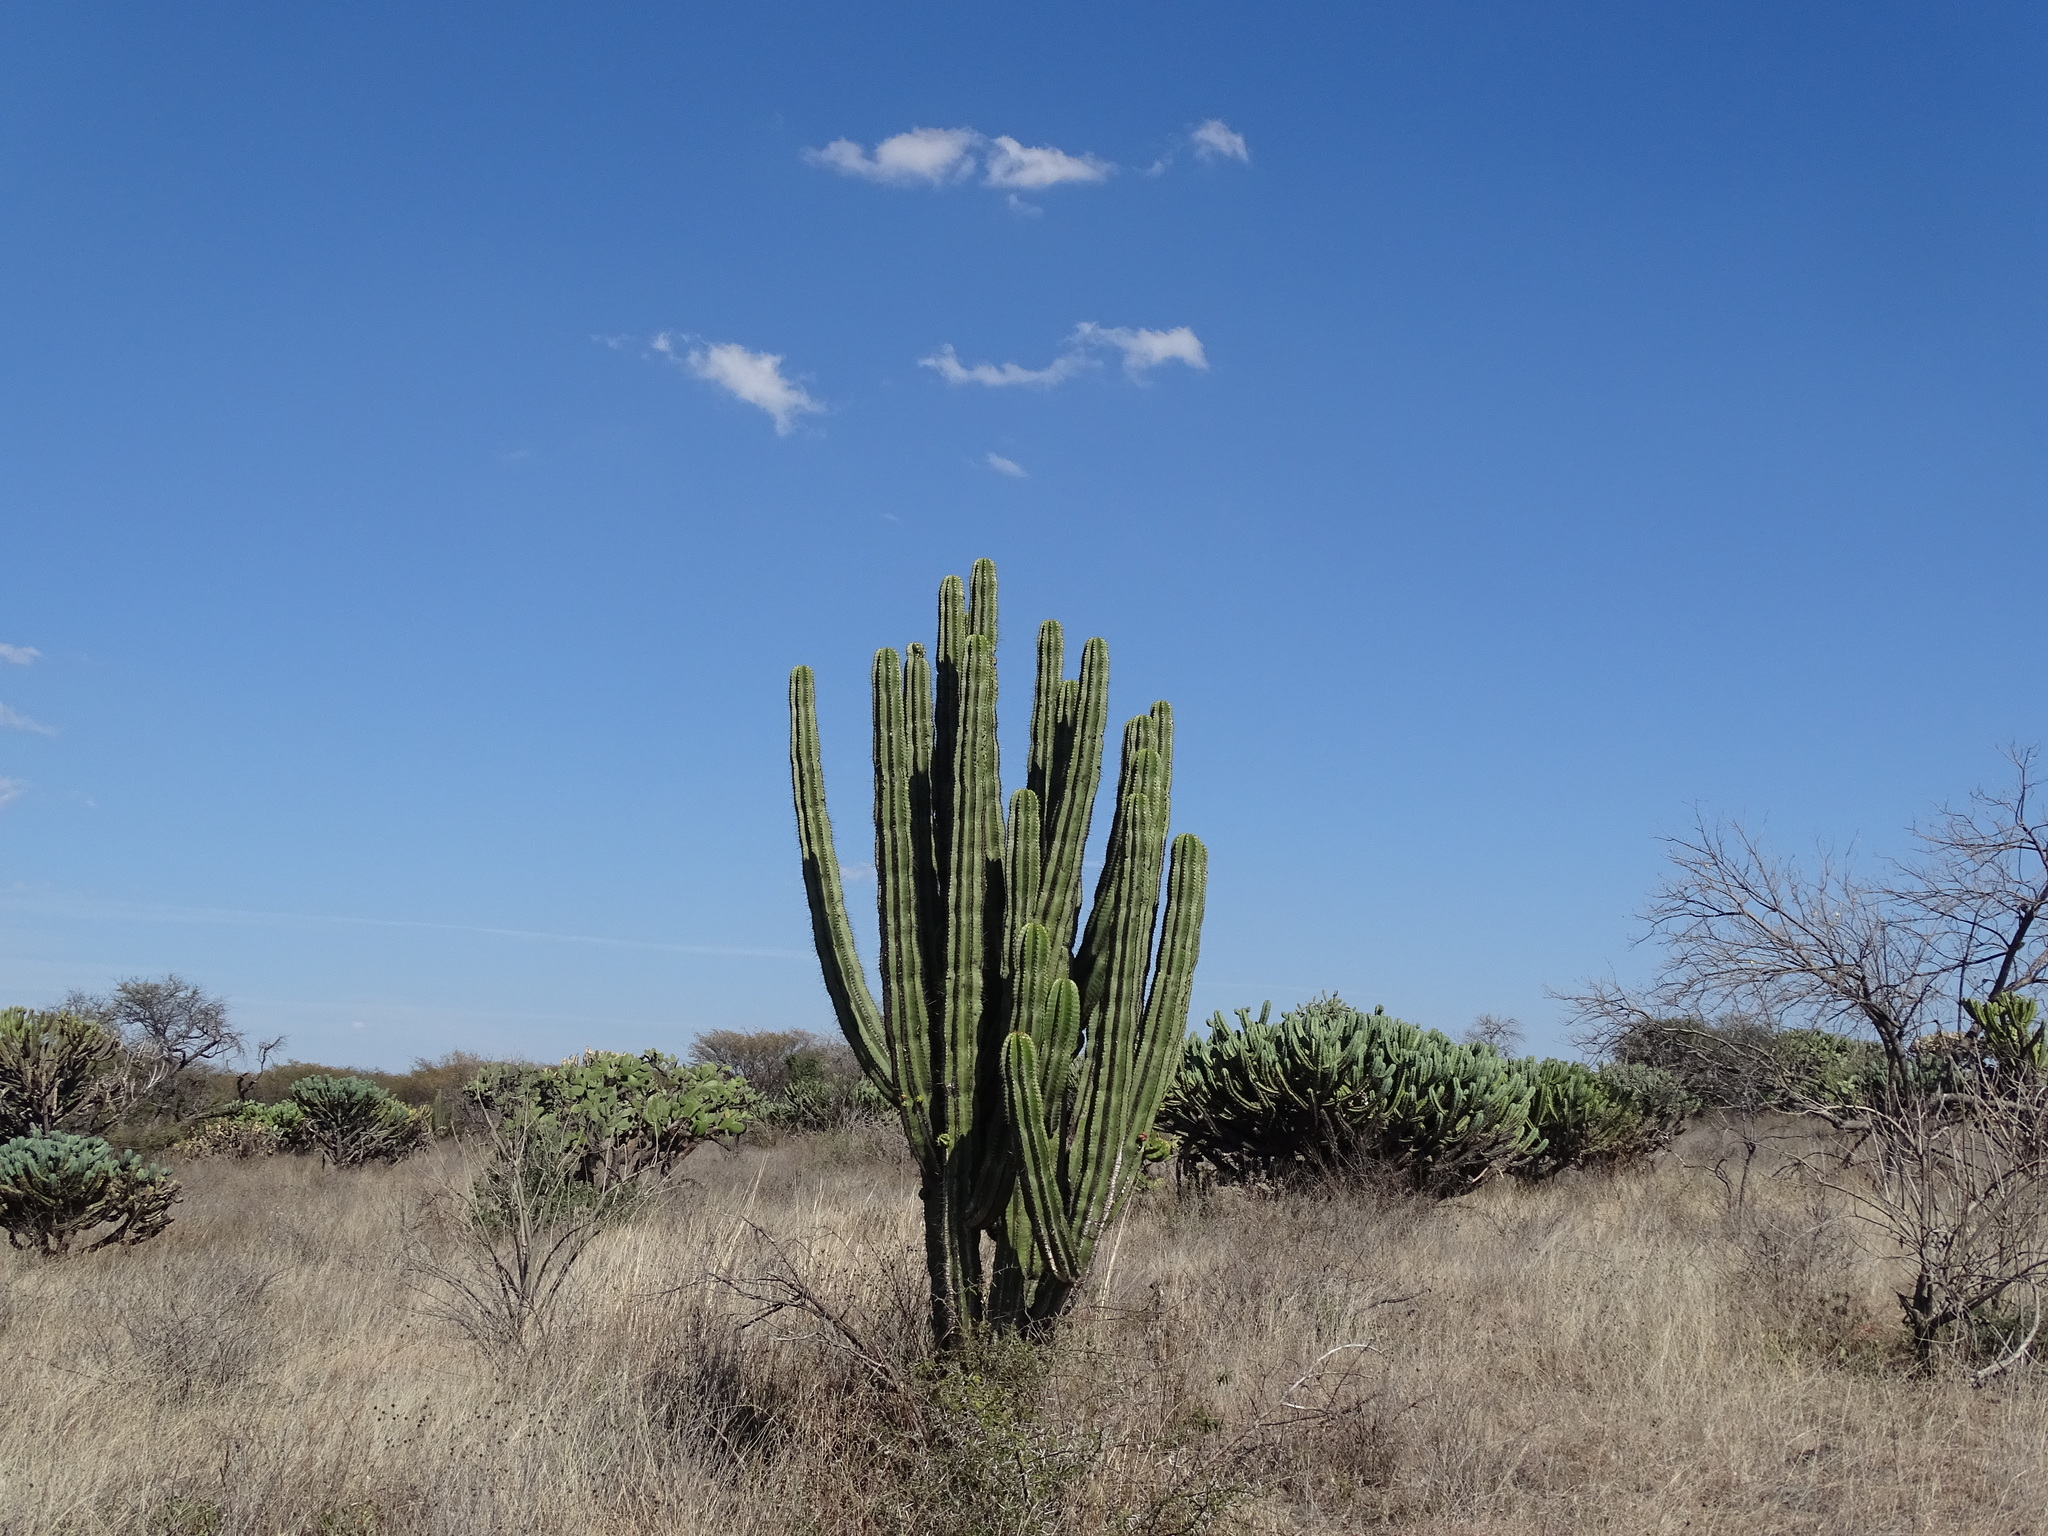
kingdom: Plantae
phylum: Tracheophyta
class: Magnoliopsida
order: Caryophyllales
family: Cactaceae
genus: Pachycereus
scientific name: Pachycereus pecten-aboriginum
